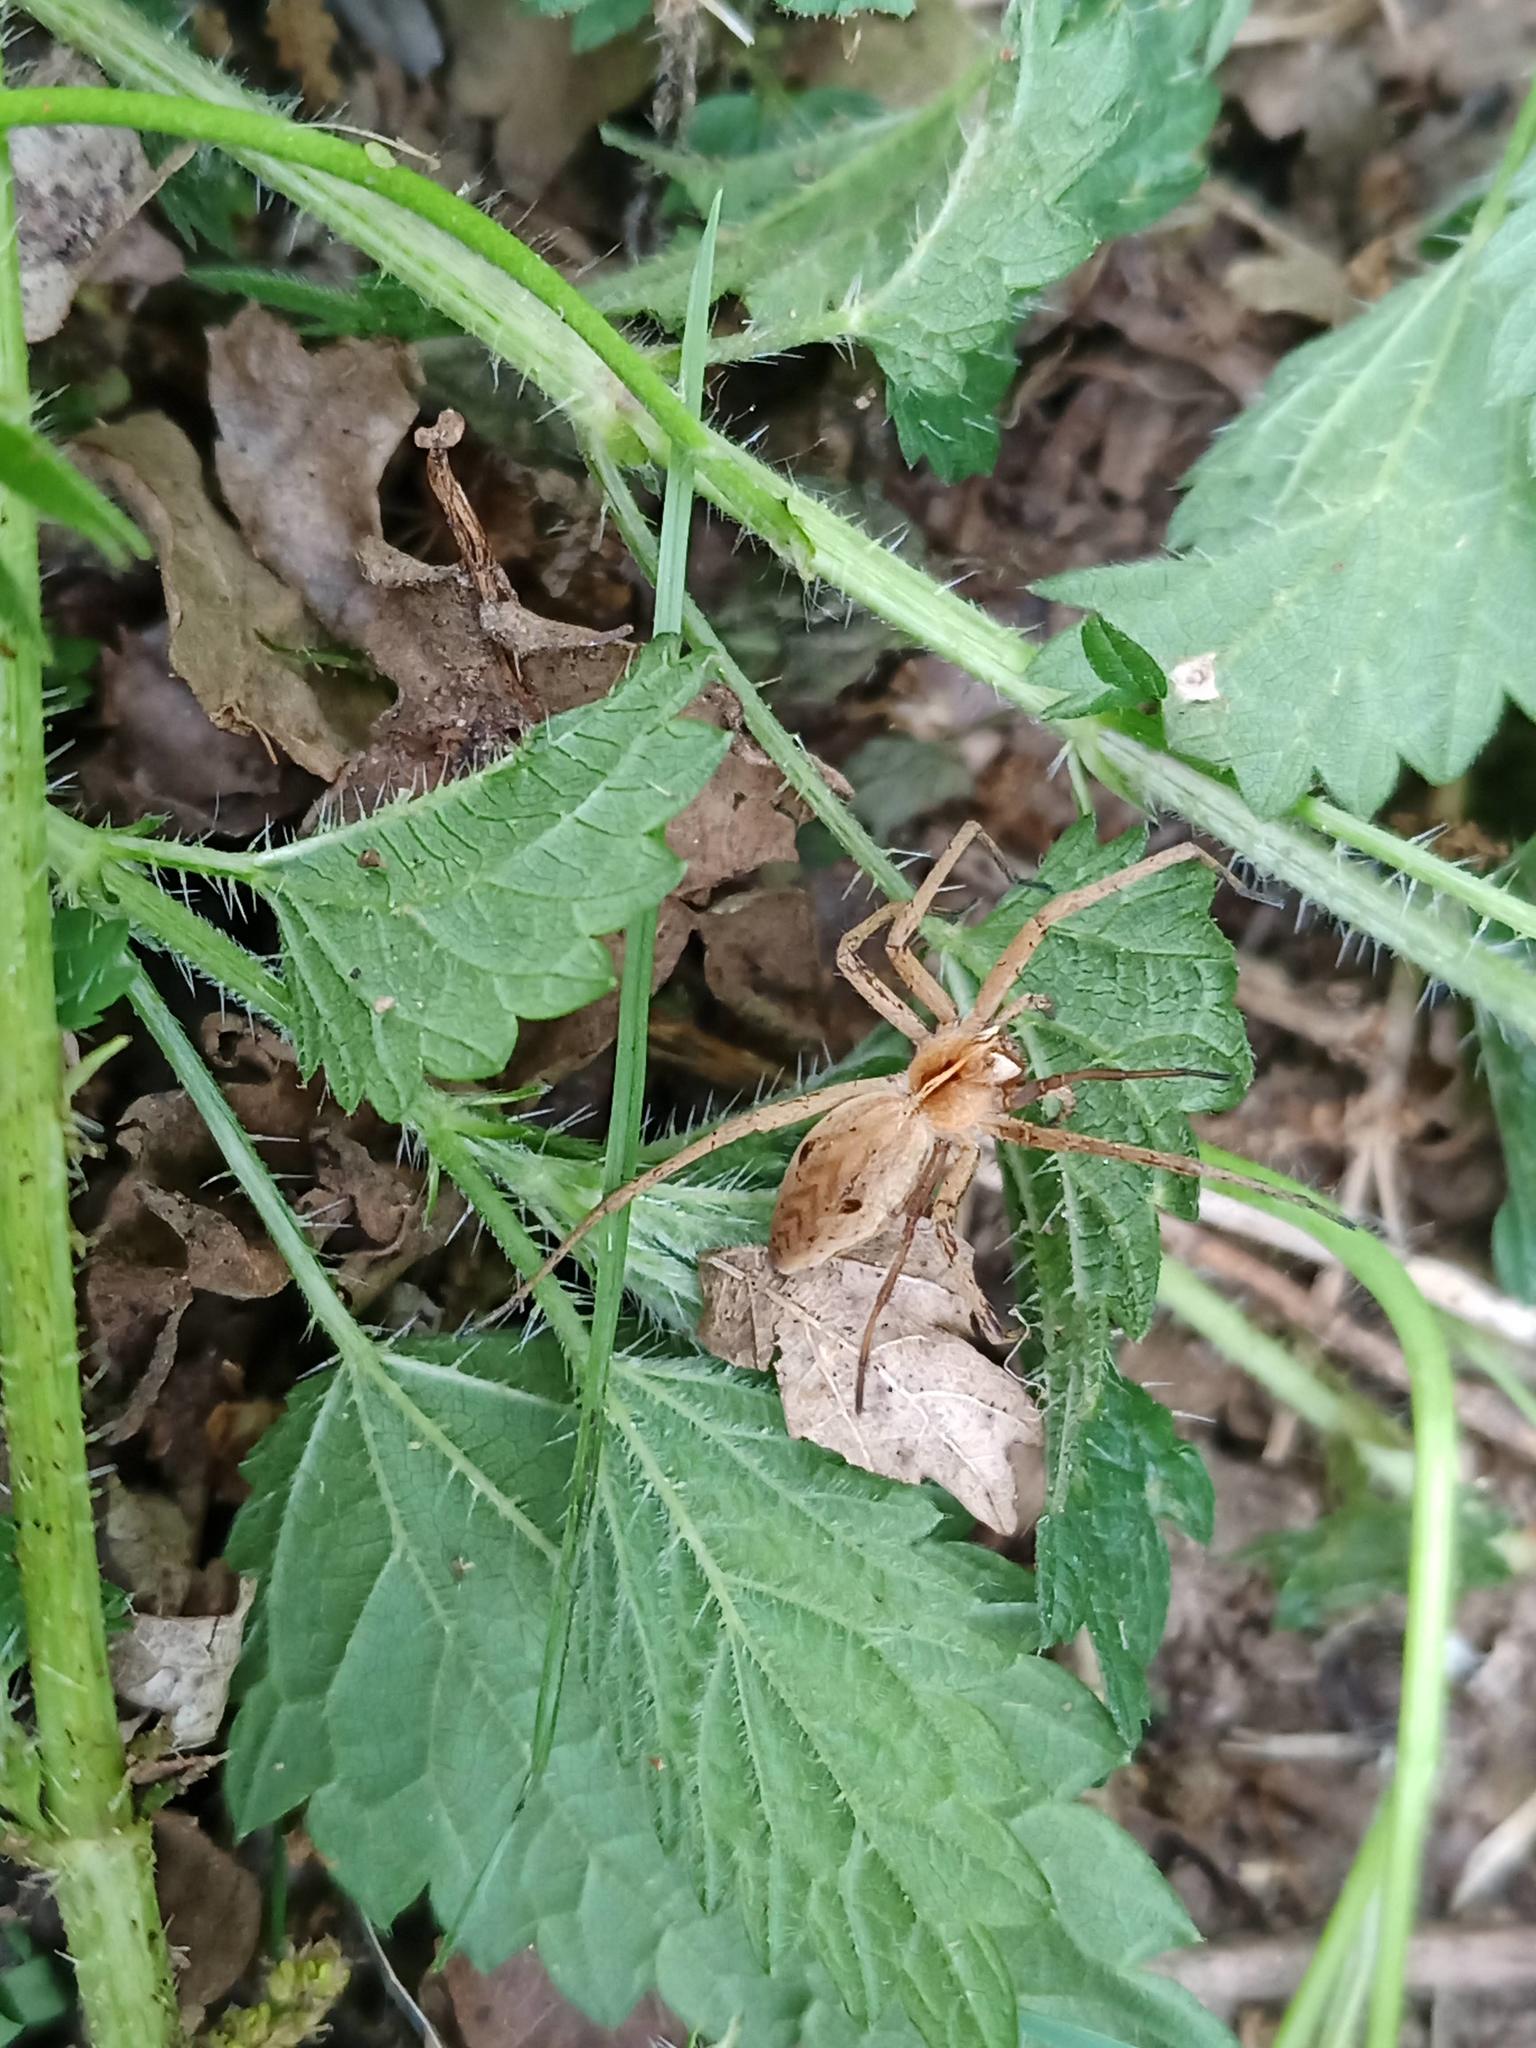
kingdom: Animalia
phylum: Arthropoda
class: Arachnida
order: Araneae
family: Pisauridae
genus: Pisaura
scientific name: Pisaura mirabilis
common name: Tent spider
